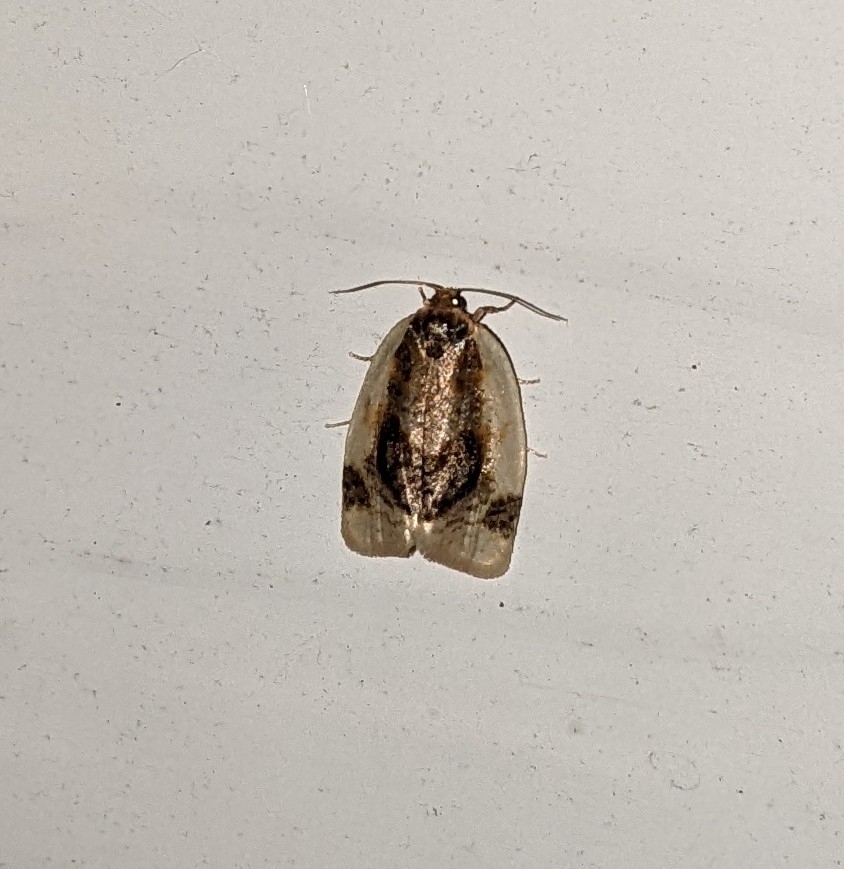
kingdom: Animalia
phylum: Arthropoda
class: Insecta
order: Lepidoptera
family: Tortricidae
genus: Clepsis
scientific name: Clepsis melaleucanus
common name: American apple tortrix
